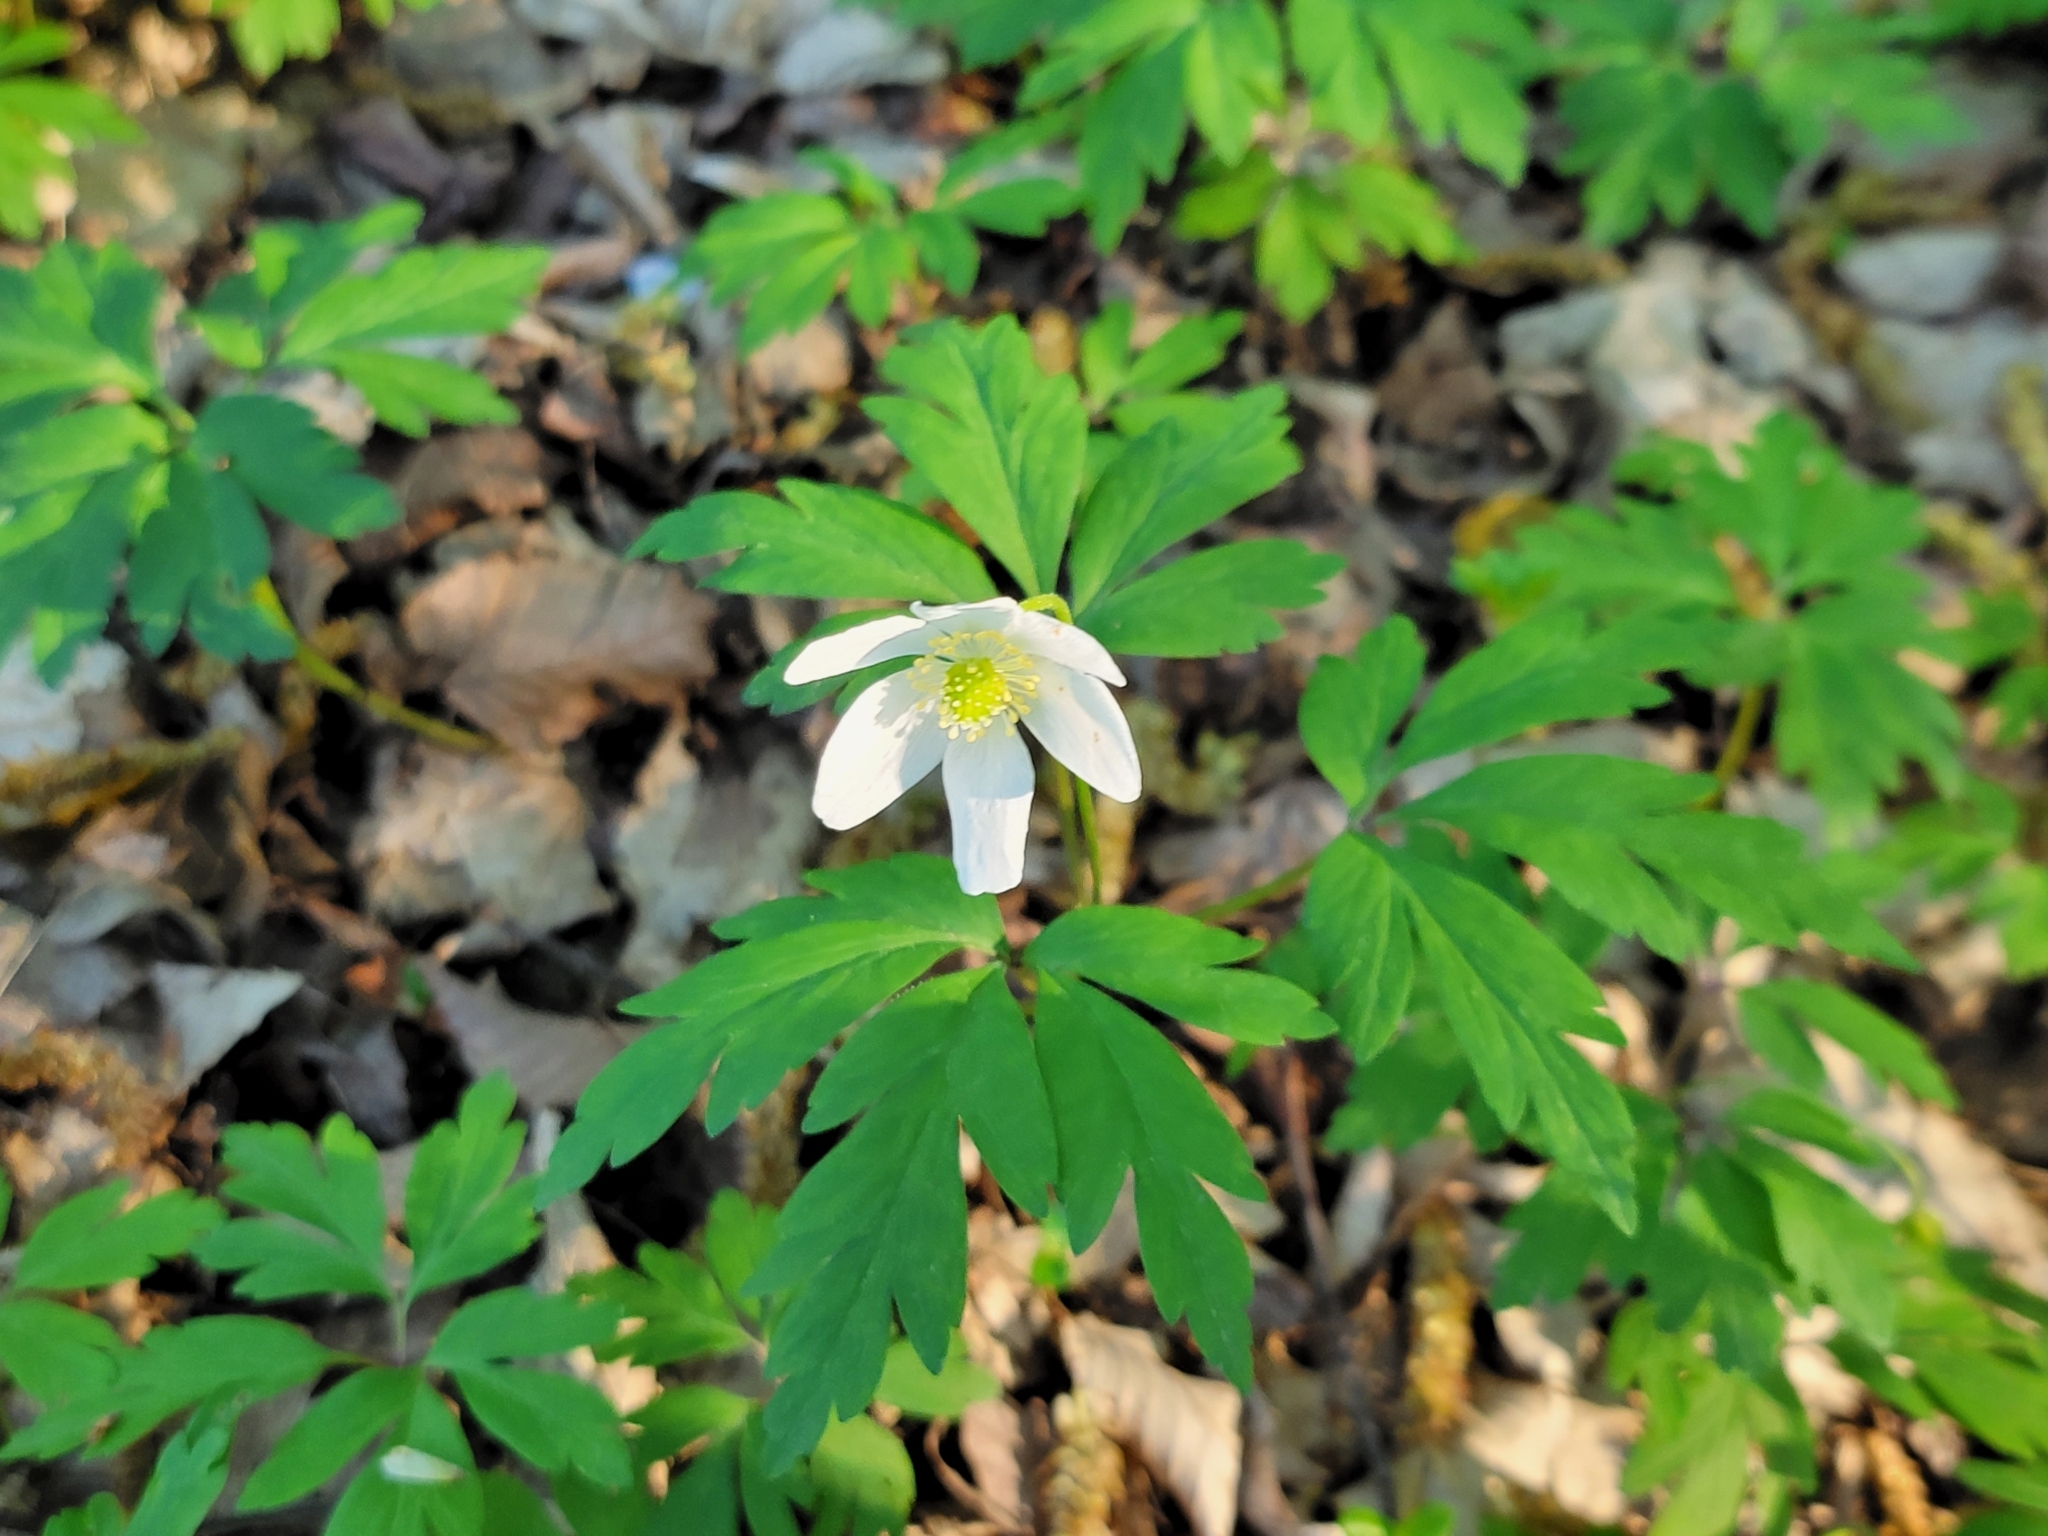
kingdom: Plantae
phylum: Tracheophyta
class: Magnoliopsida
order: Ranunculales
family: Ranunculaceae
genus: Anemone
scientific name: Anemone nemorosa
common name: Wood anemone
